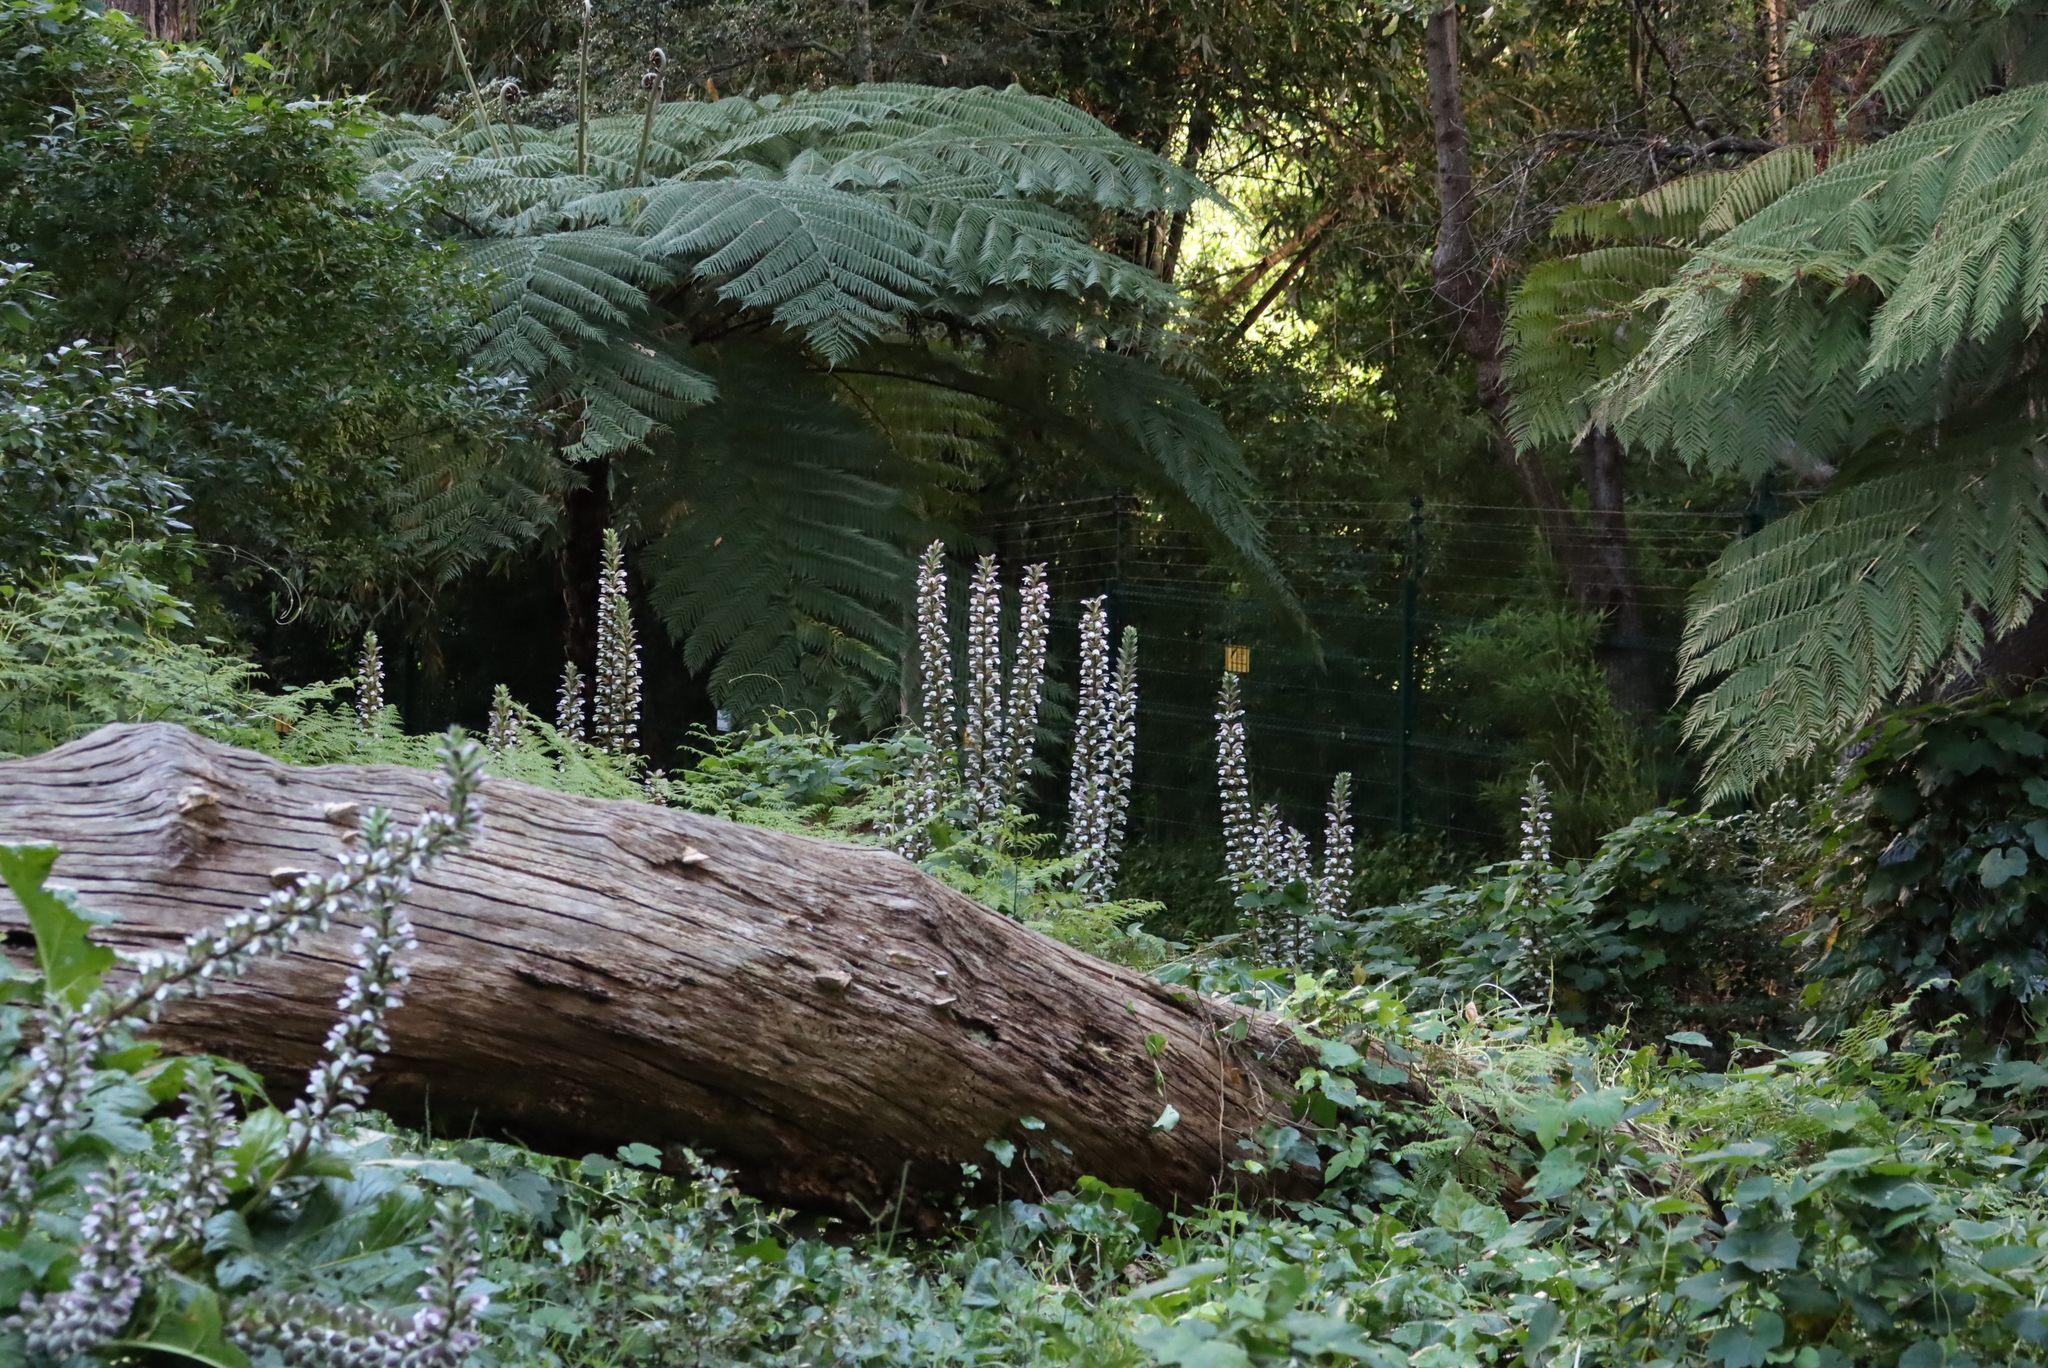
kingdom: Plantae
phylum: Tracheophyta
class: Polypodiopsida
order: Cyatheales
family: Cyatheaceae
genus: Sphaeropteris
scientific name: Sphaeropteris cooperi
